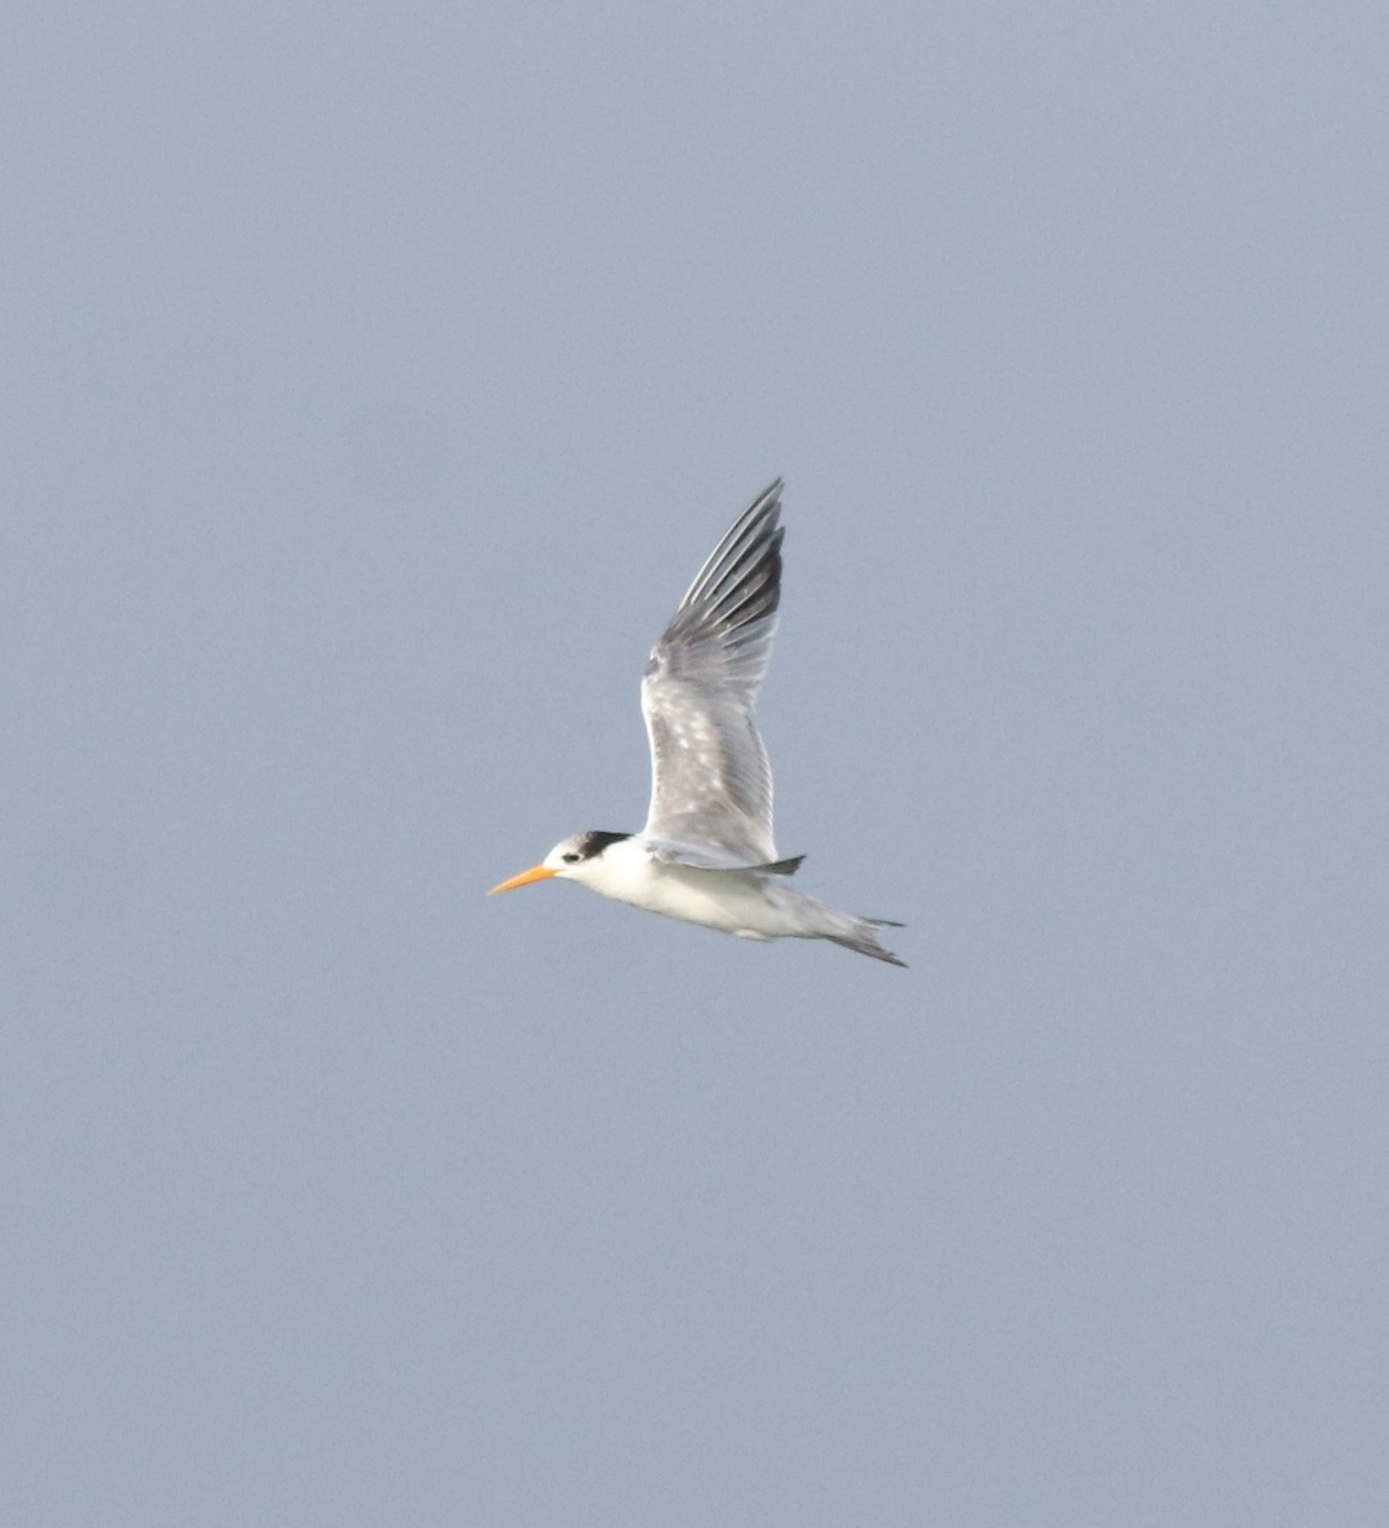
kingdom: Animalia
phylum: Chordata
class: Aves
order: Charadriiformes
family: Laridae
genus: Thalasseus
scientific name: Thalasseus bengalensis
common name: Lesser crested tern
